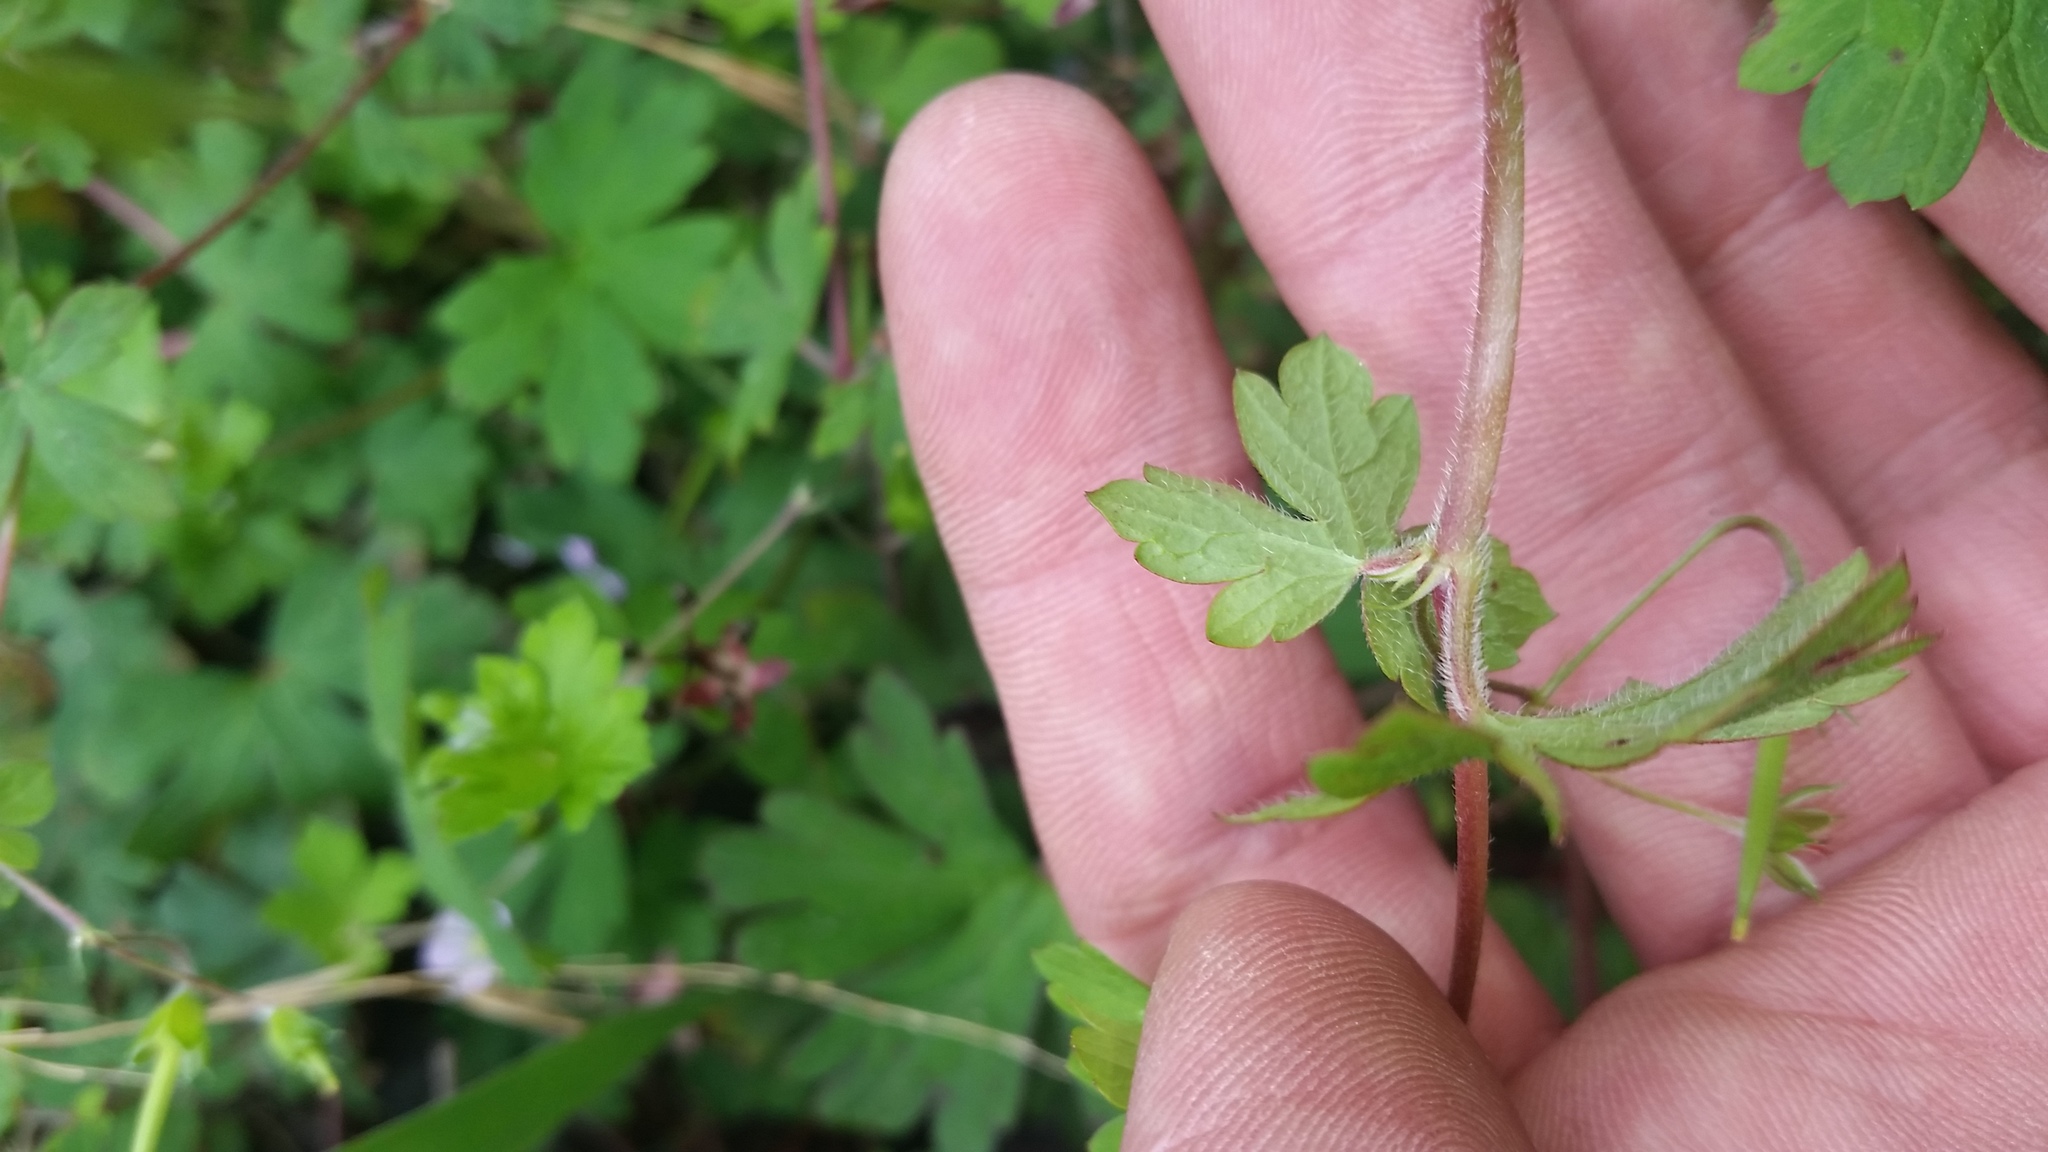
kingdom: Plantae
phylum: Tracheophyta
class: Magnoliopsida
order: Geraniales
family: Geraniaceae
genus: Geranium
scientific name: Geranium homeanum
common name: Australasian geranium
